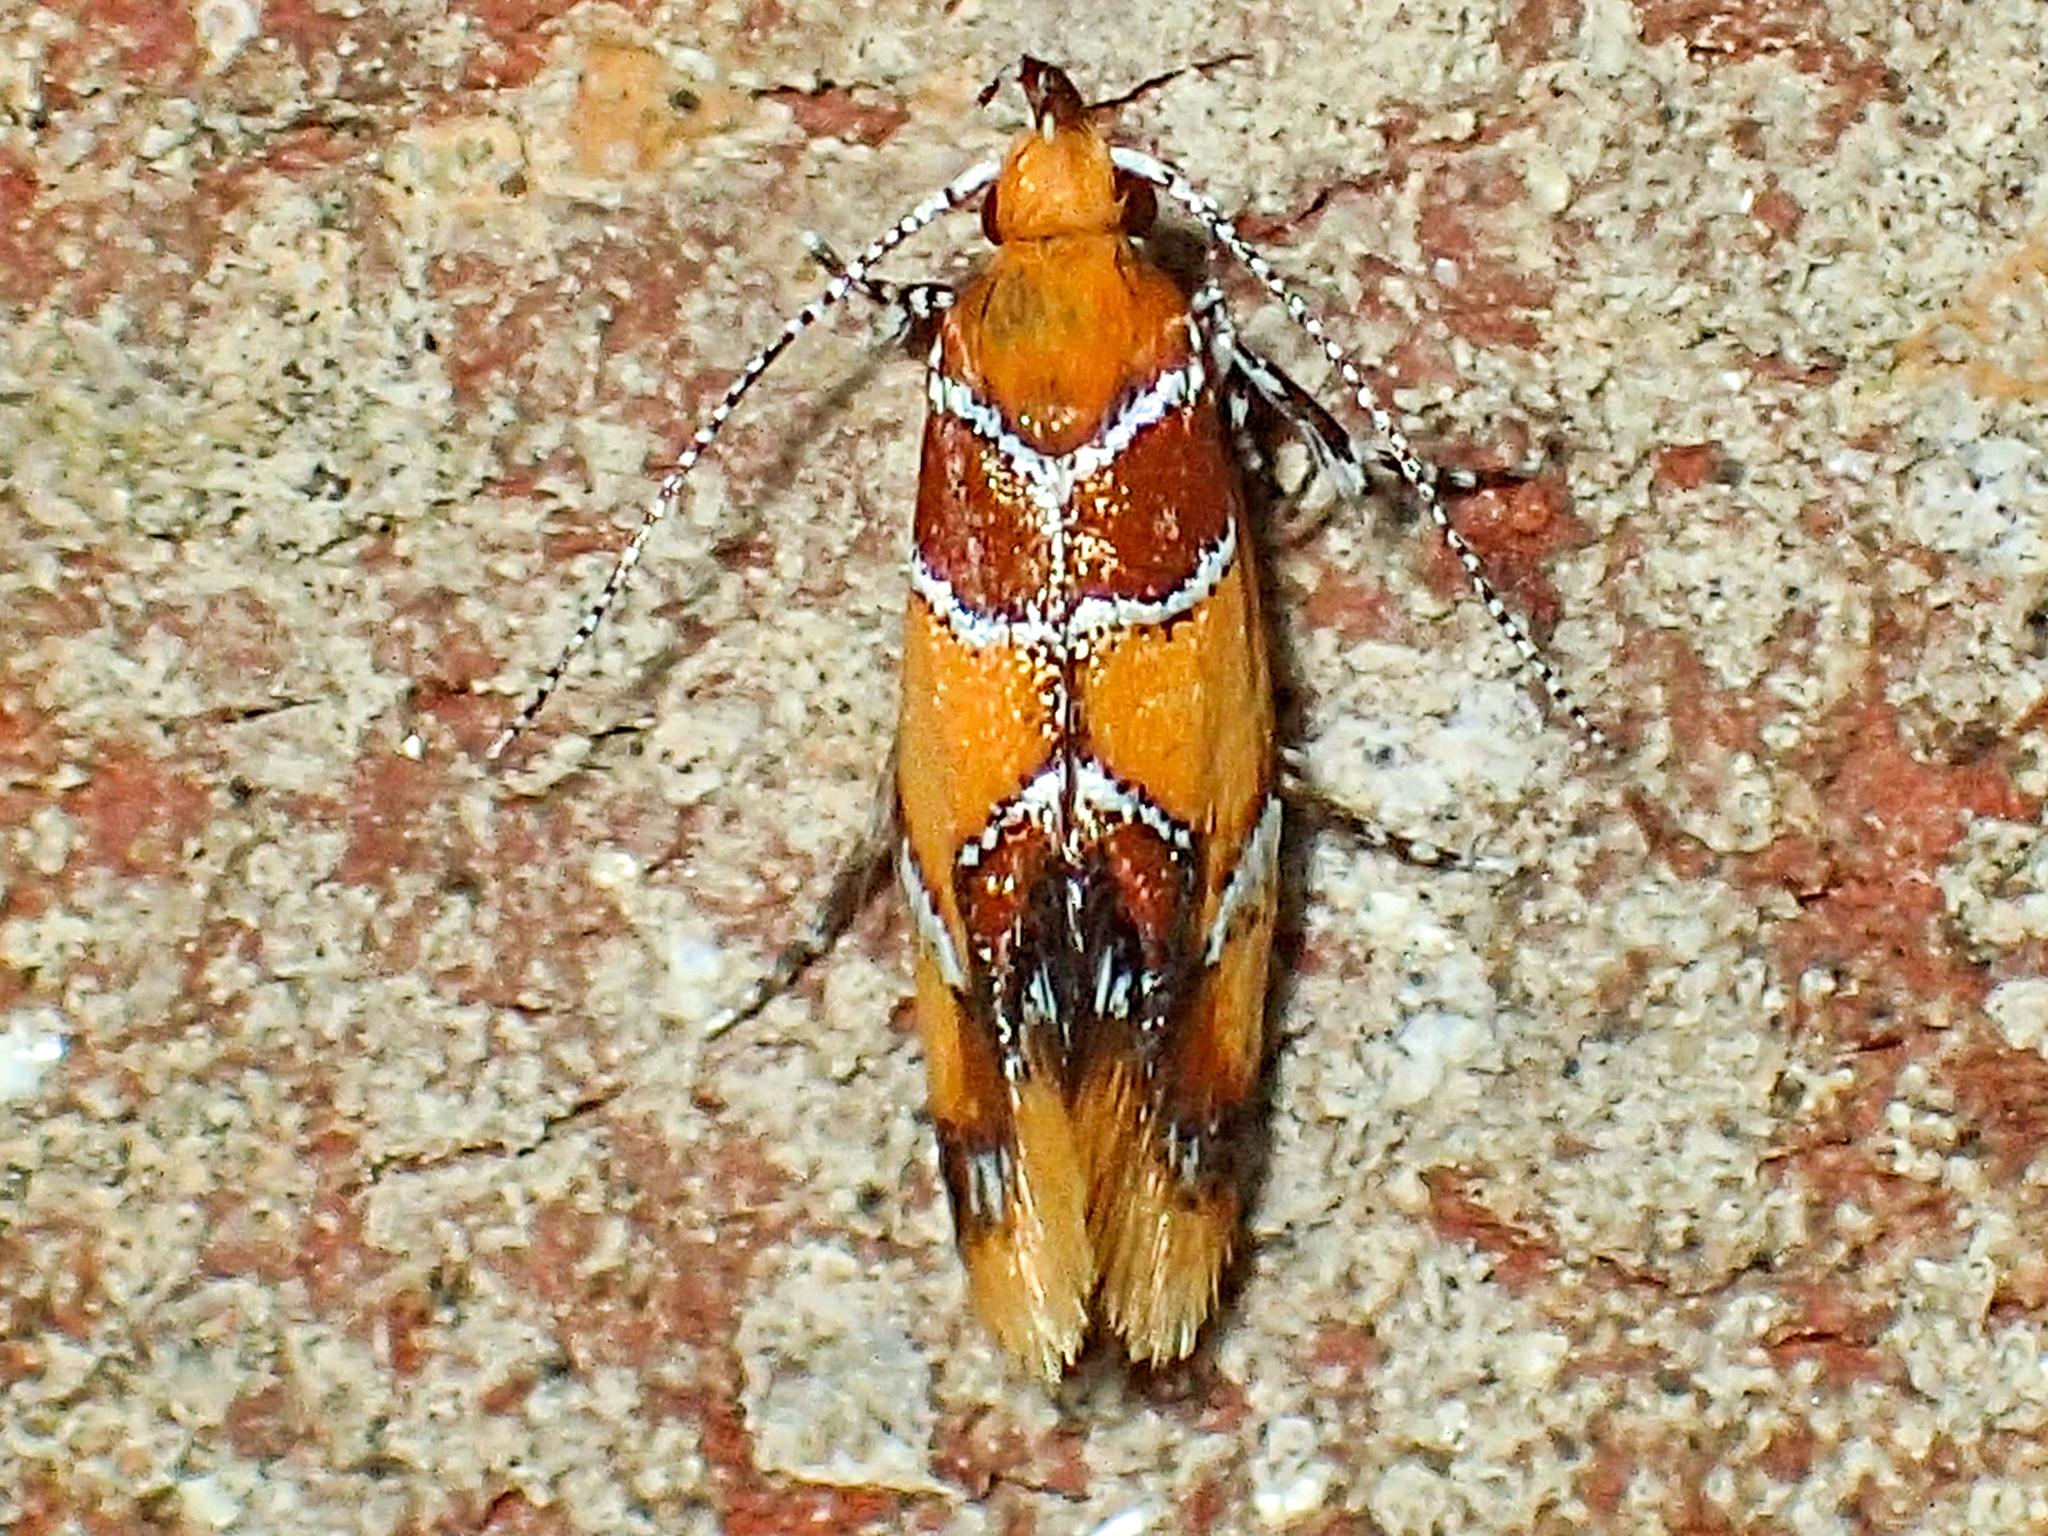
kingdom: Animalia
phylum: Arthropoda
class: Insecta
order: Lepidoptera
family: Oecophoridae
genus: Callima
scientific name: Callima argenticinctella
